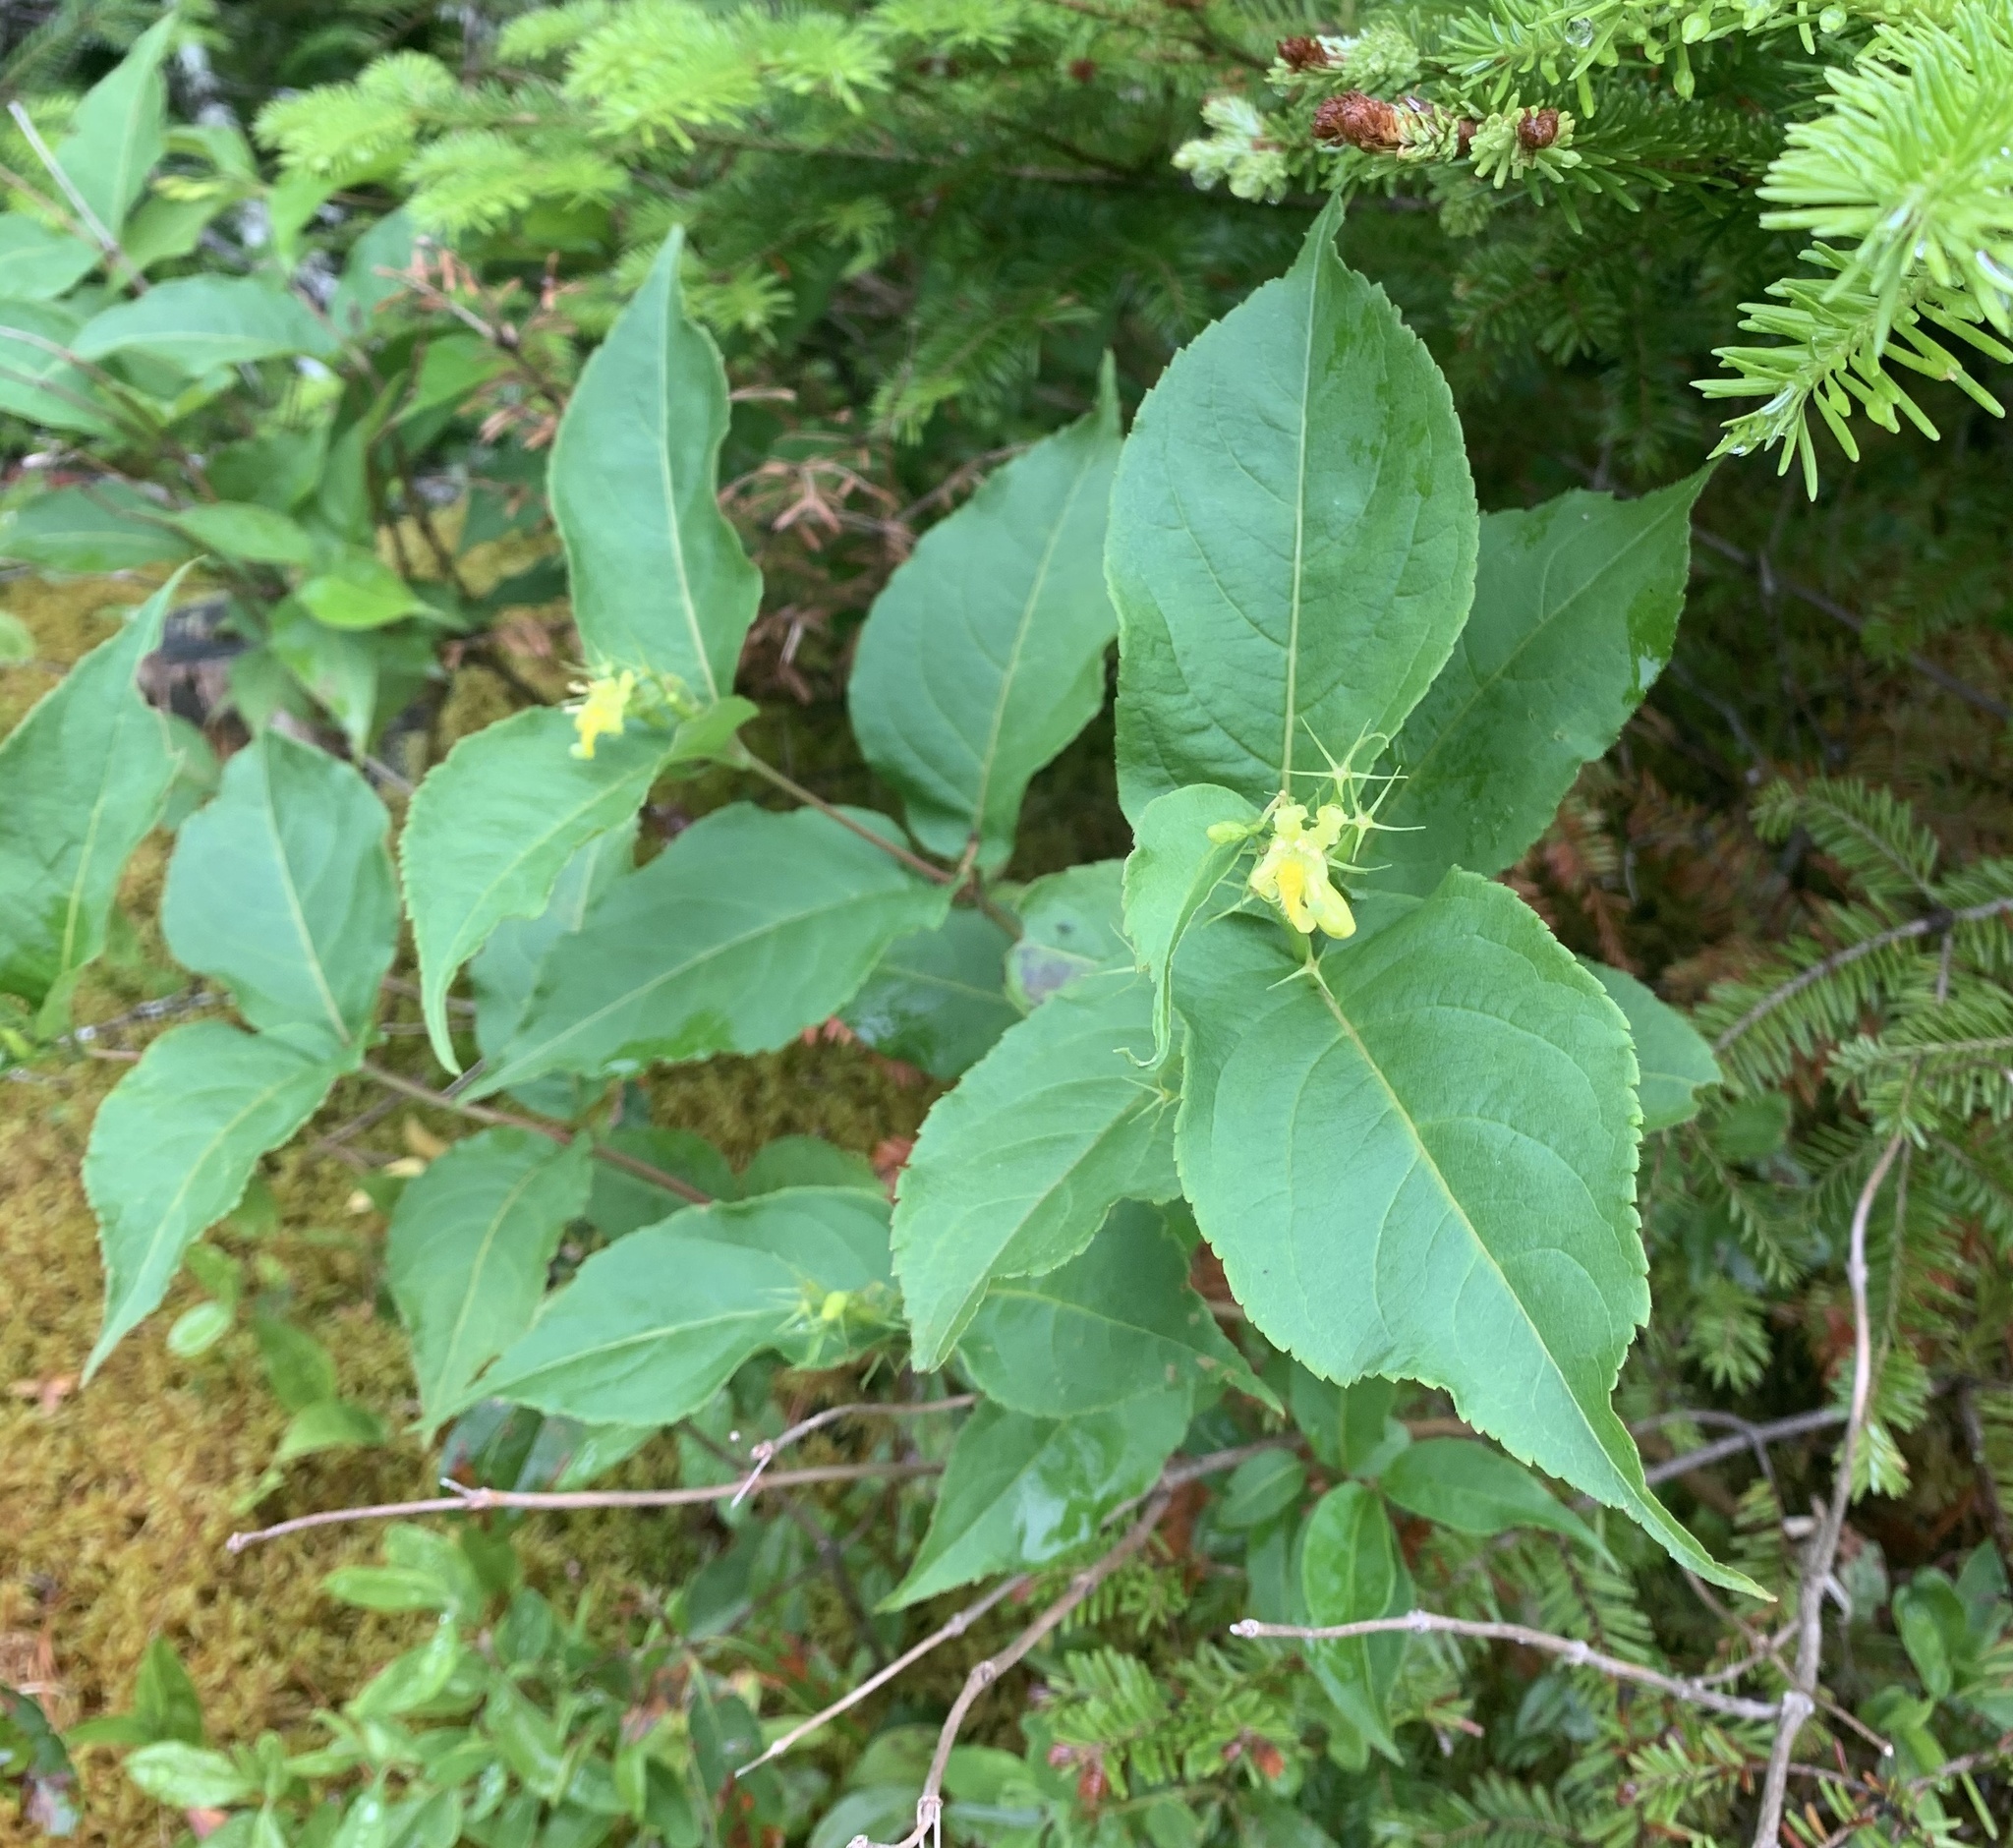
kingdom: Plantae
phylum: Tracheophyta
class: Magnoliopsida
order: Dipsacales
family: Caprifoliaceae
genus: Diervilla
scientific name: Diervilla lonicera
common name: Bush-honeysuckle
